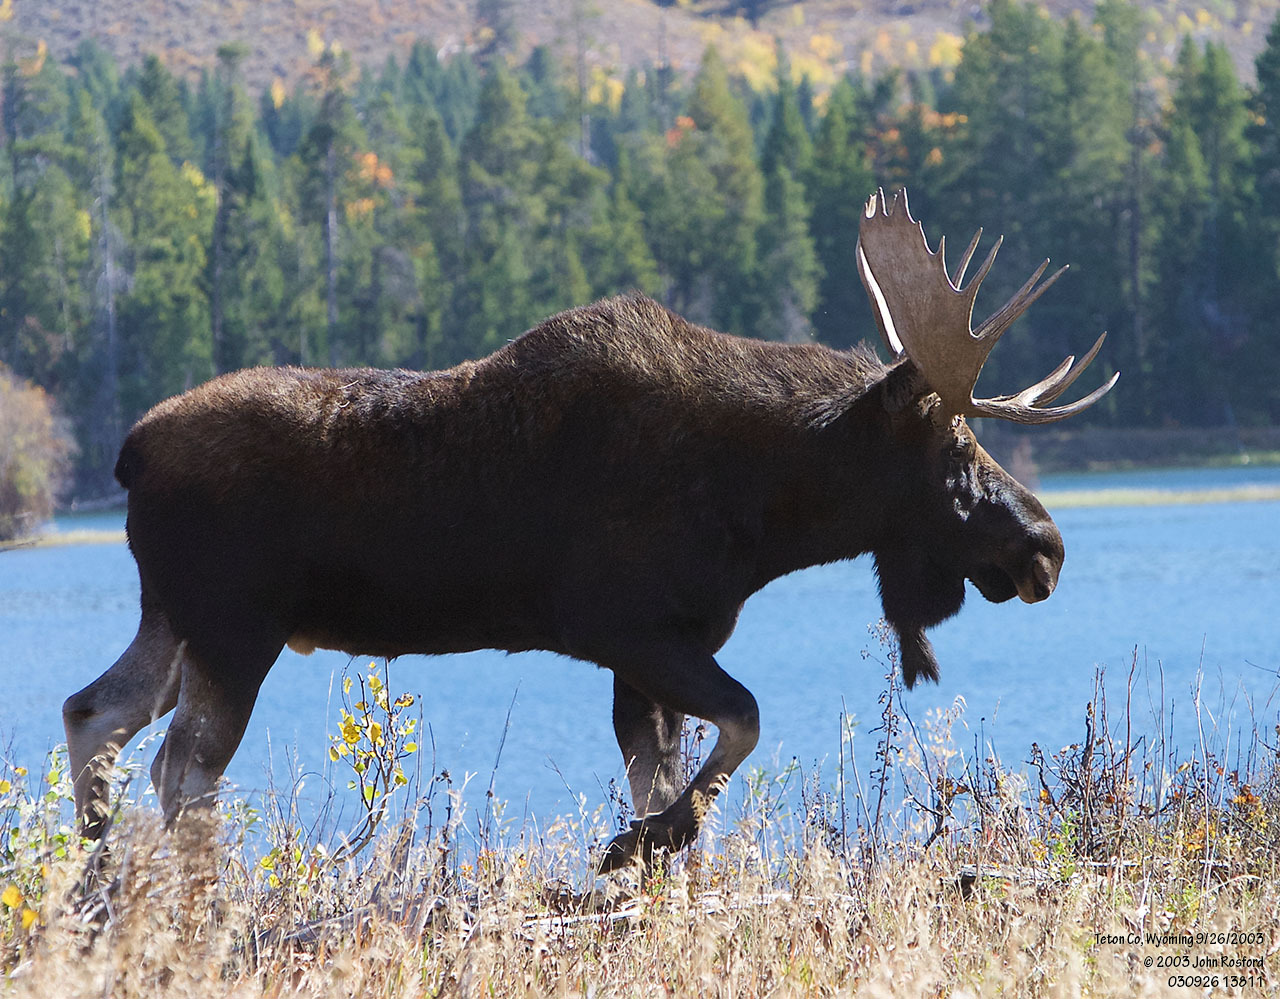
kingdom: Animalia
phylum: Chordata
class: Mammalia
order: Artiodactyla
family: Cervidae
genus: Alces
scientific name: Alces alces
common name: Moose
